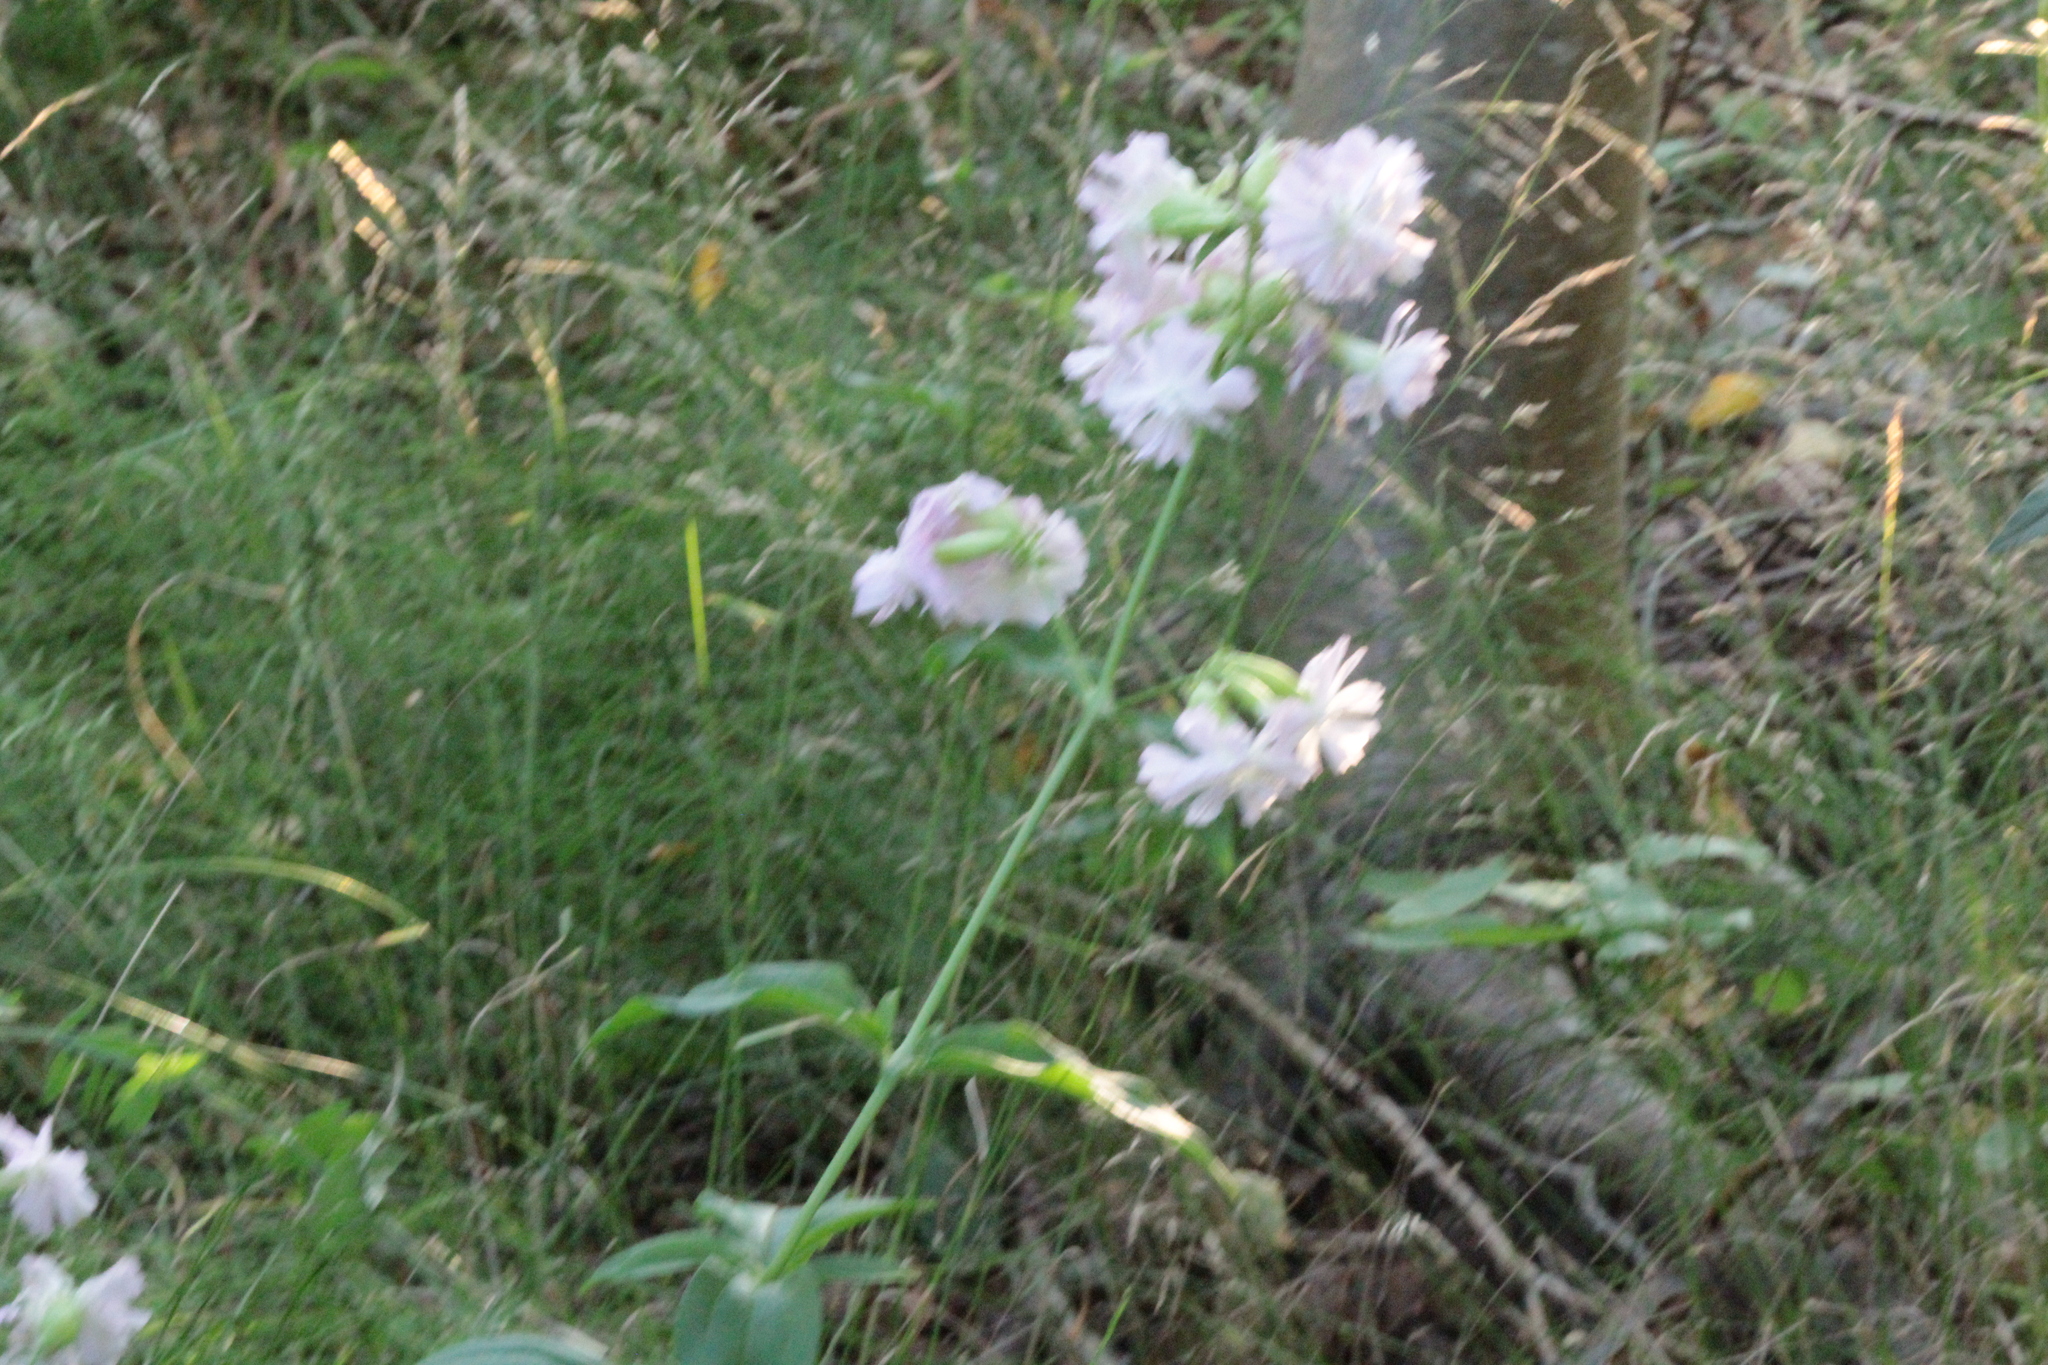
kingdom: Plantae
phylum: Tracheophyta
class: Magnoliopsida
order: Caryophyllales
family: Caryophyllaceae
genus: Saponaria
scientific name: Saponaria officinalis
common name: Soapwort
